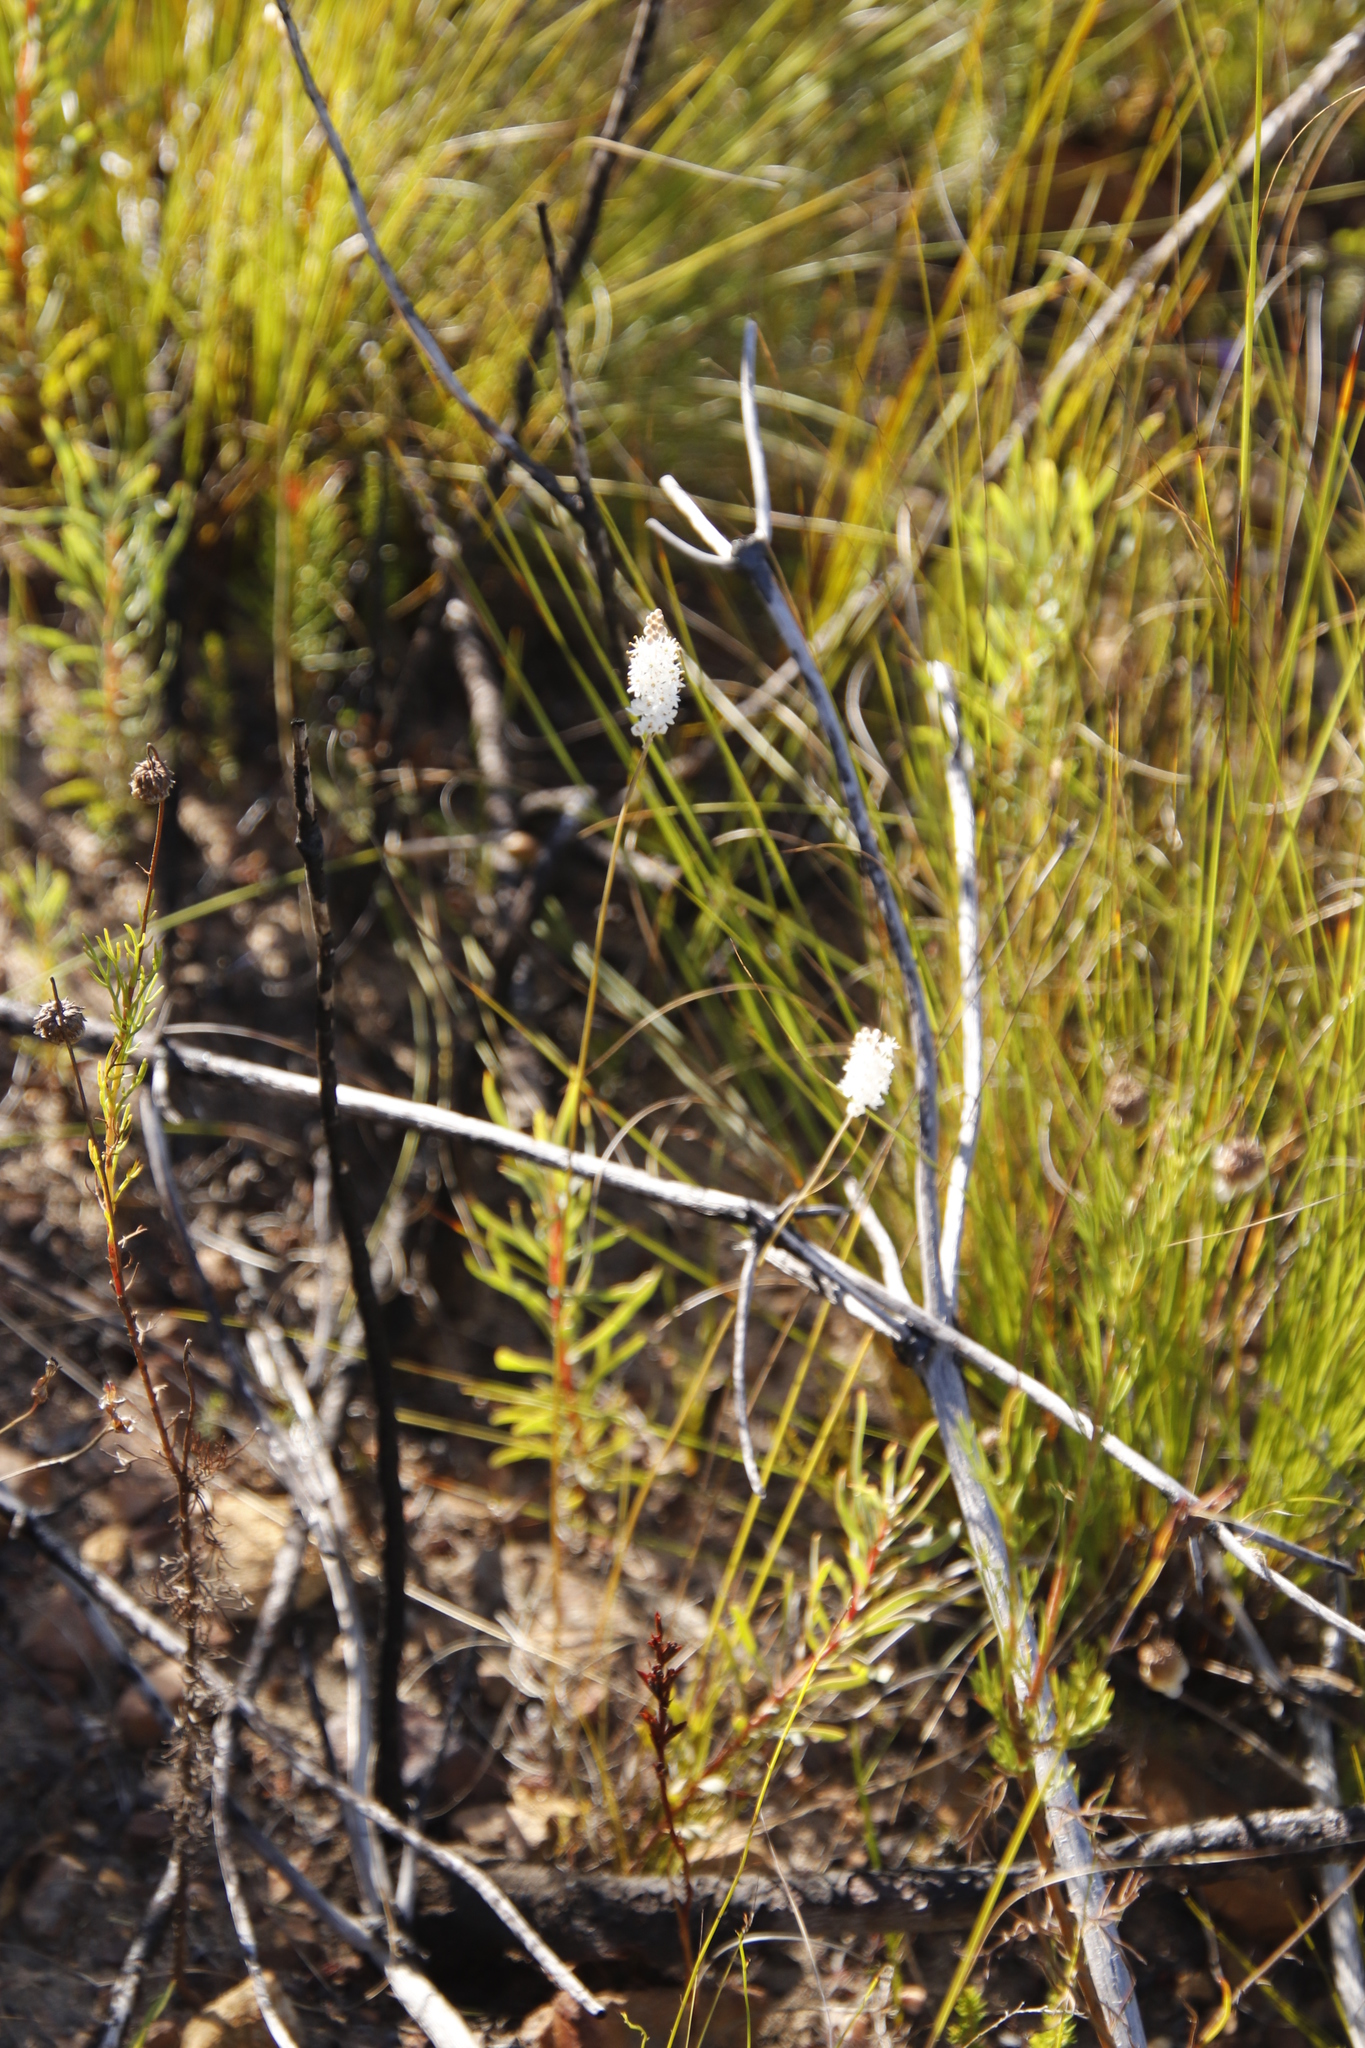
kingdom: Plantae
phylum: Tracheophyta
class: Liliopsida
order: Asparagales
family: Asphodelaceae
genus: Bulbinella
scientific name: Bulbinella trinervis
